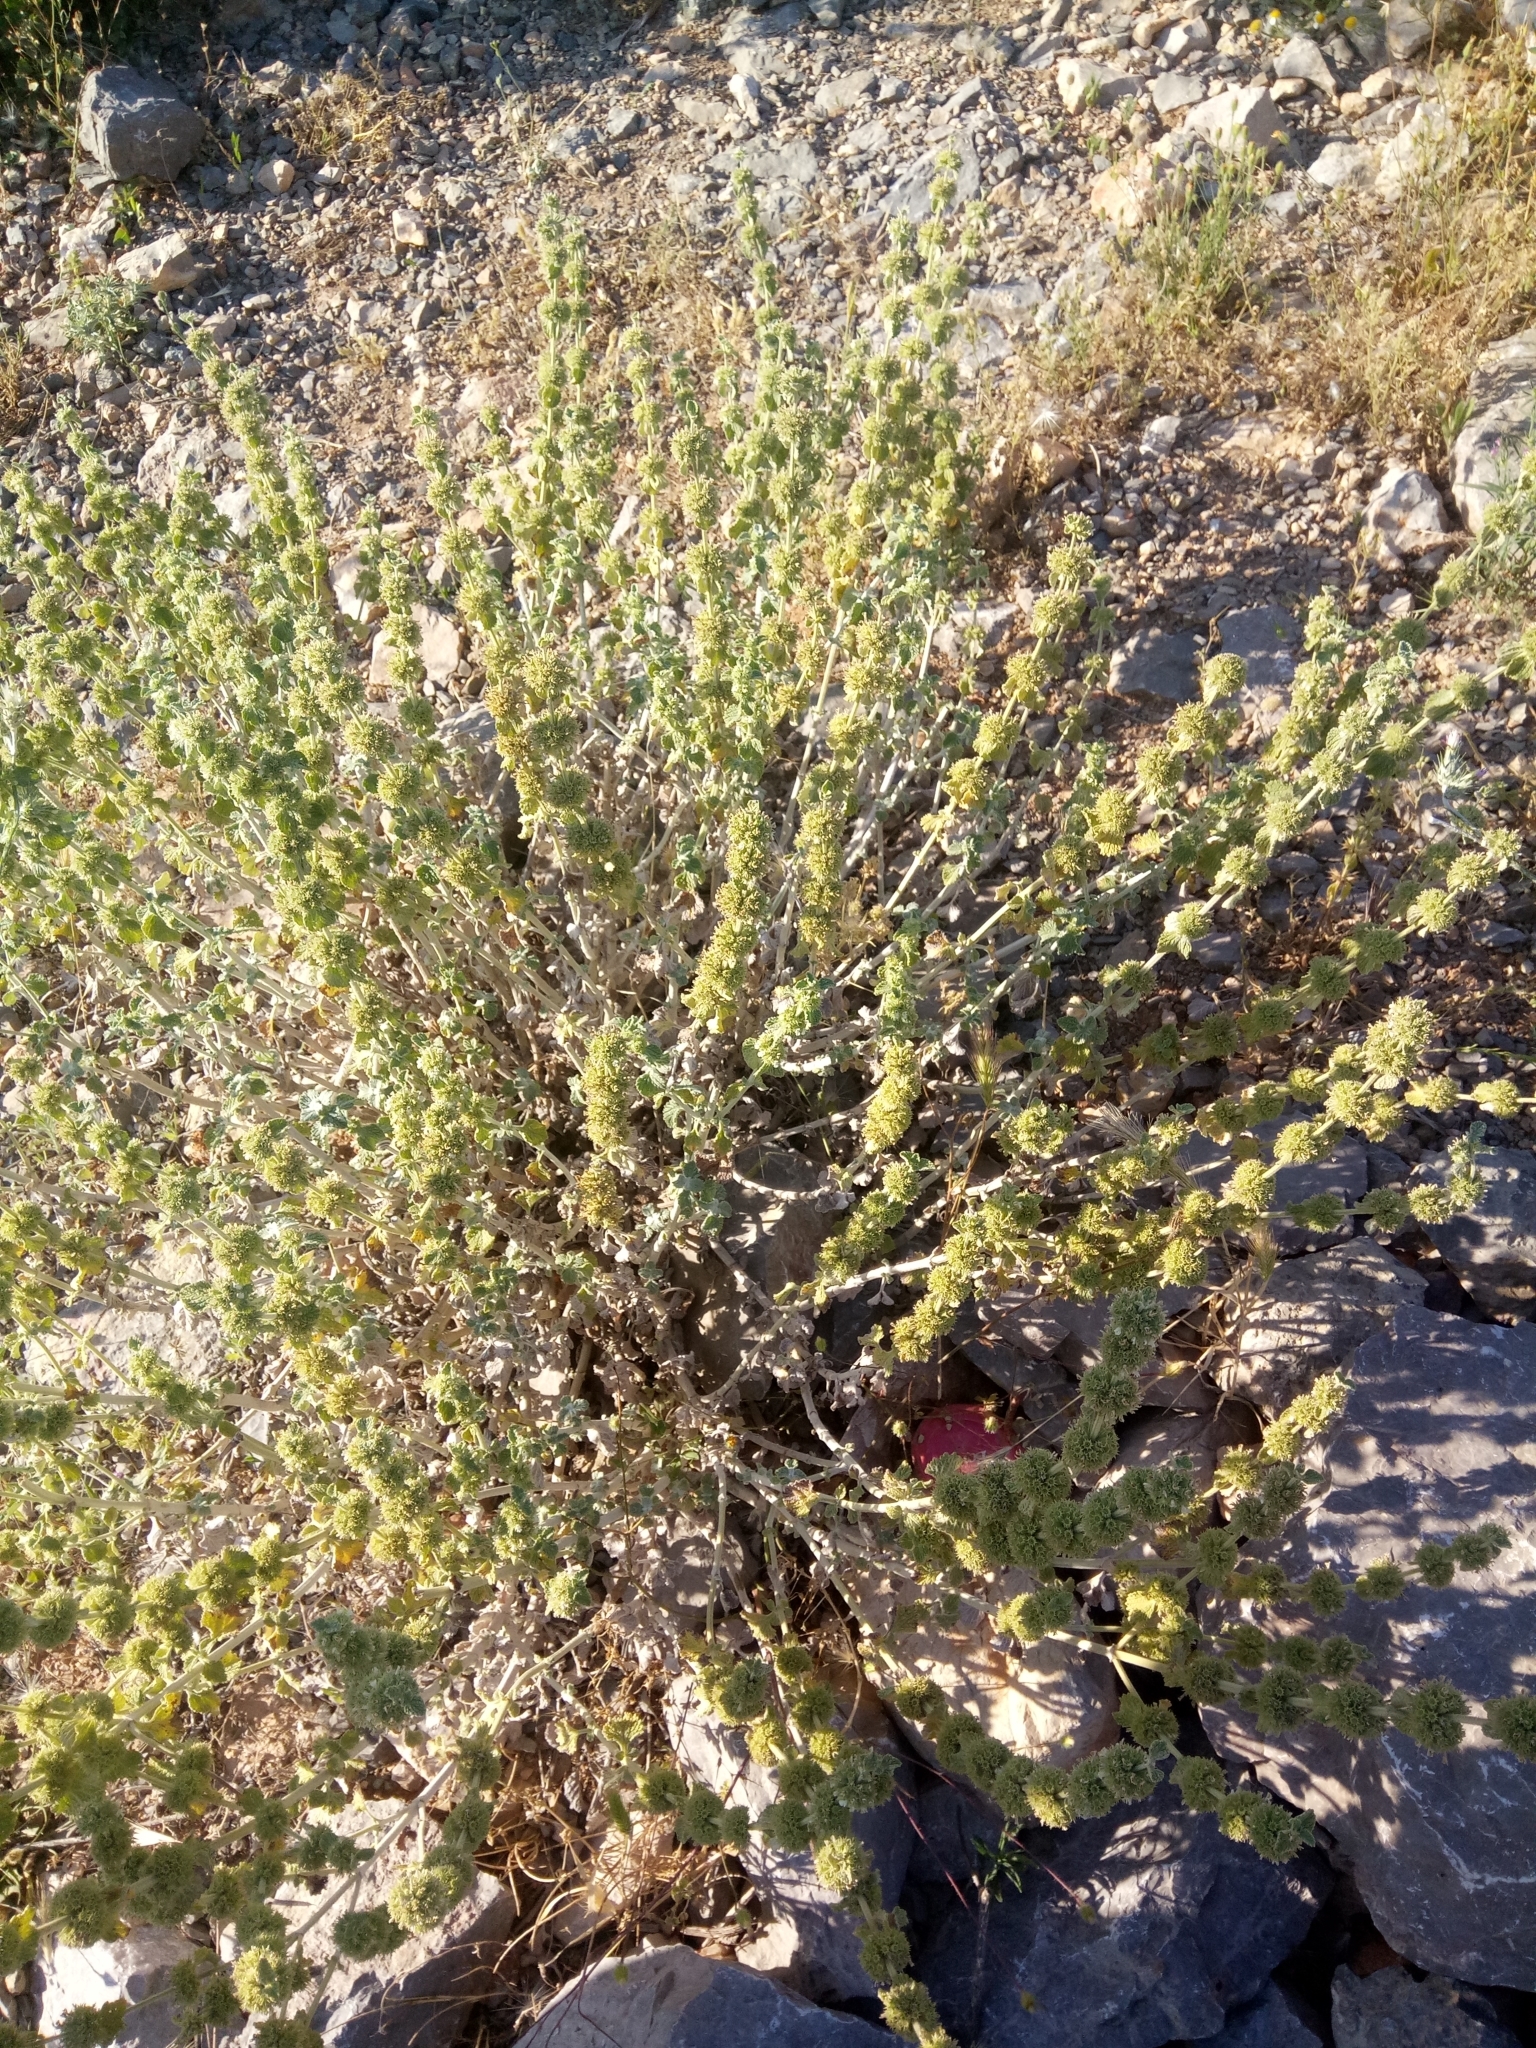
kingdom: Plantae
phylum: Tracheophyta
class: Magnoliopsida
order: Lamiales
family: Lamiaceae
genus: Marrubium
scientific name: Marrubium vulgare
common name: Horehound
